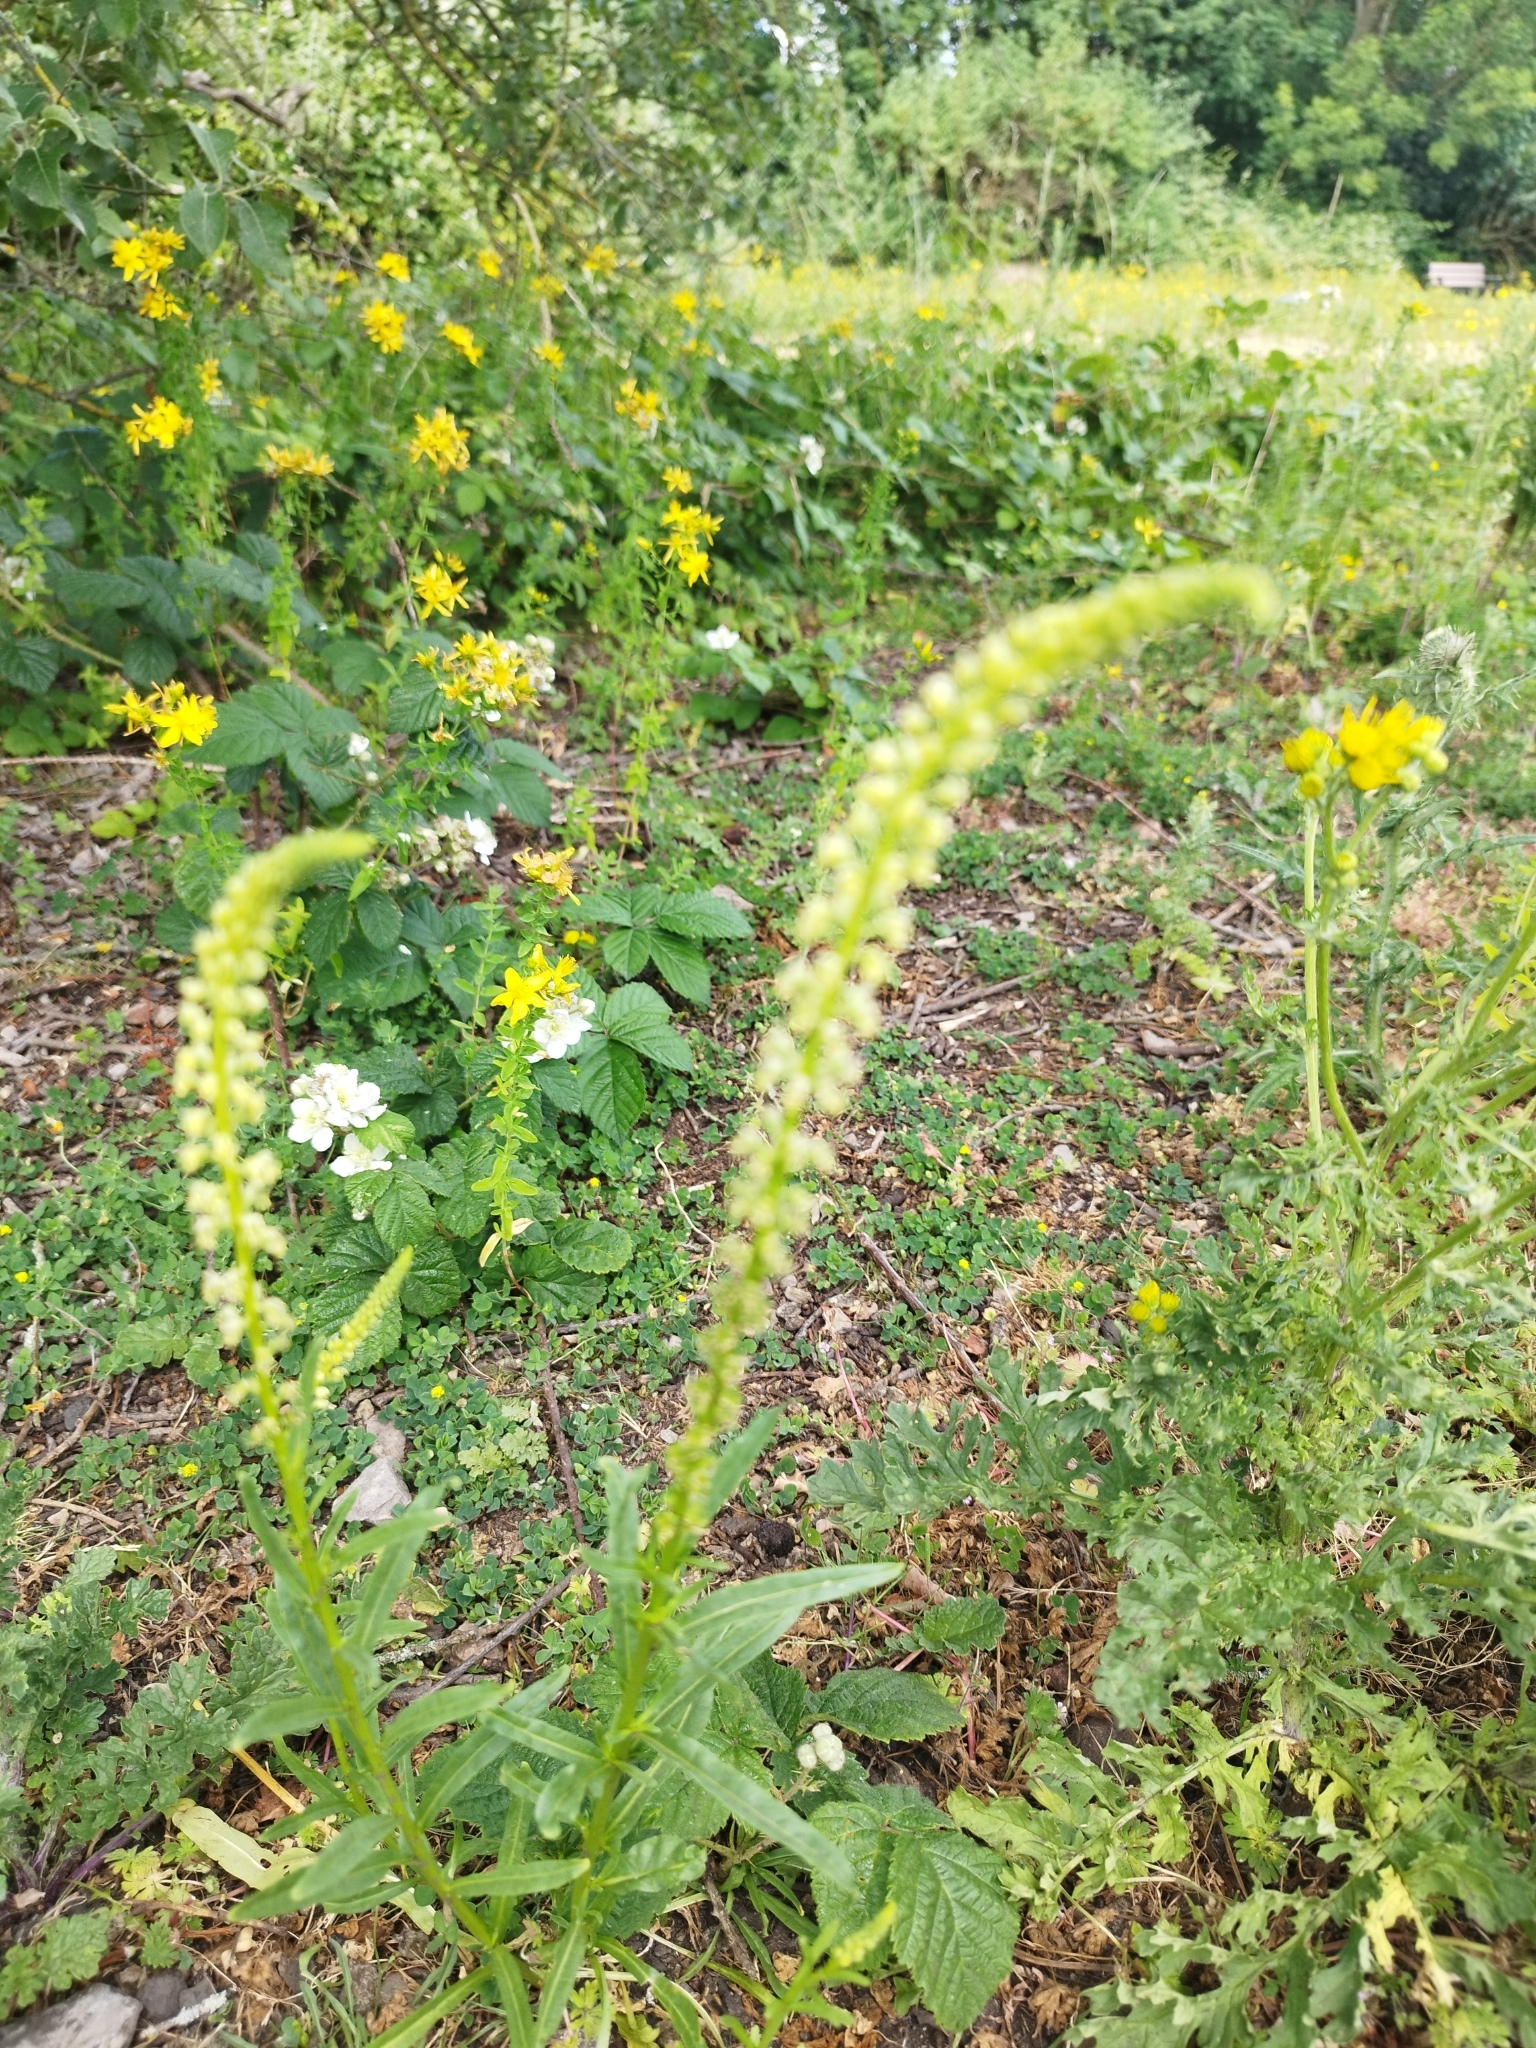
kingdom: Plantae
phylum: Tracheophyta
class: Magnoliopsida
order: Brassicales
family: Resedaceae
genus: Reseda
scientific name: Reseda luteola
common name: Weld
